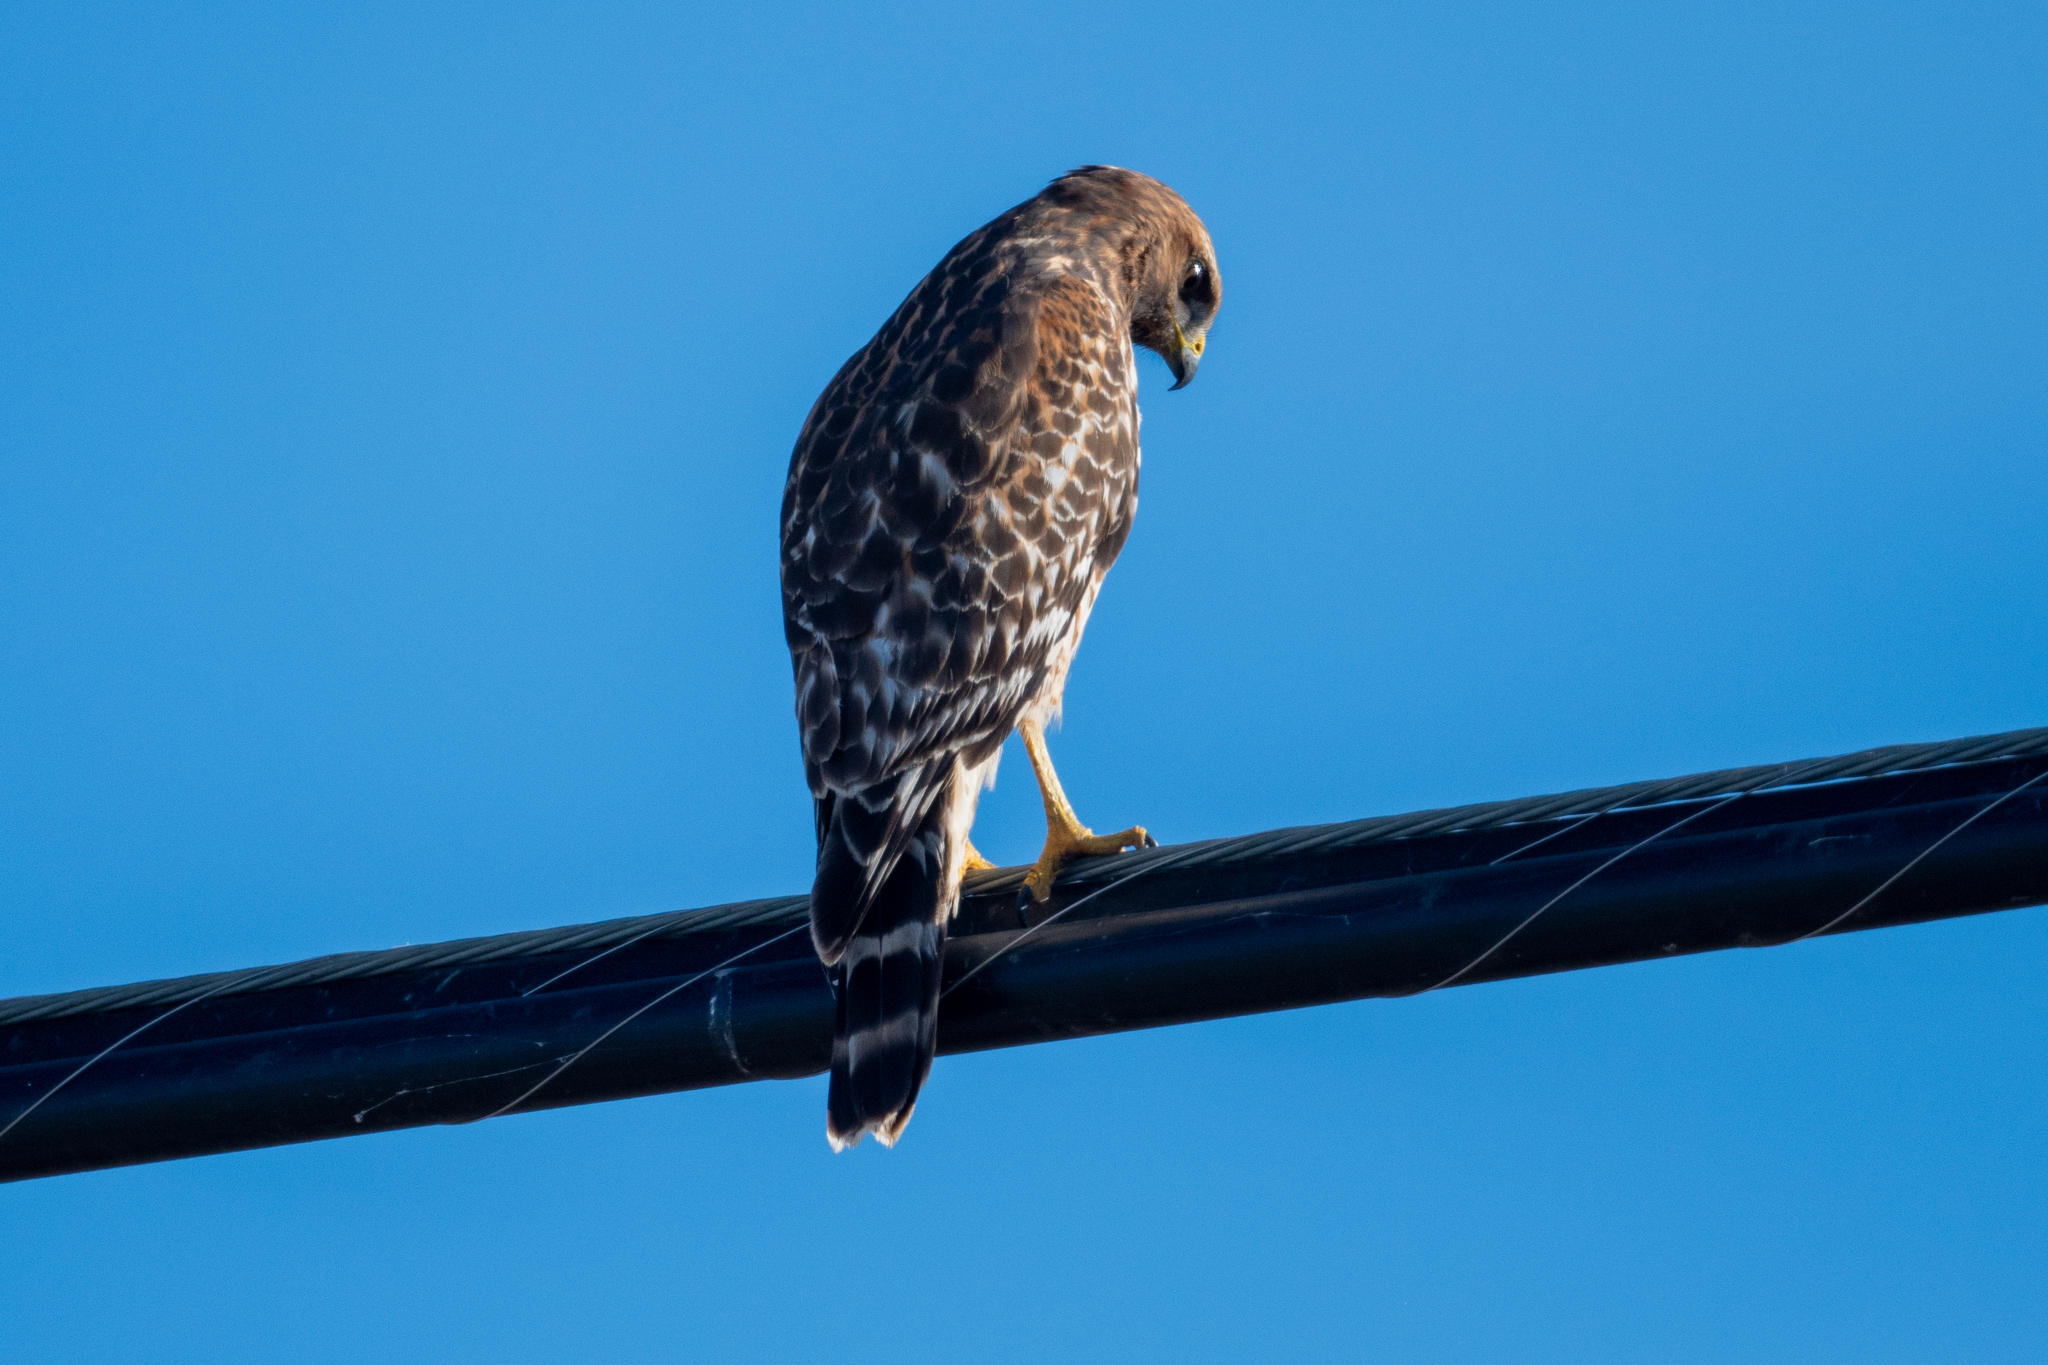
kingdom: Animalia
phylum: Chordata
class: Aves
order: Accipitriformes
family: Accipitridae
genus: Buteo
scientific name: Buteo lineatus
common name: Red-shouldered hawk
